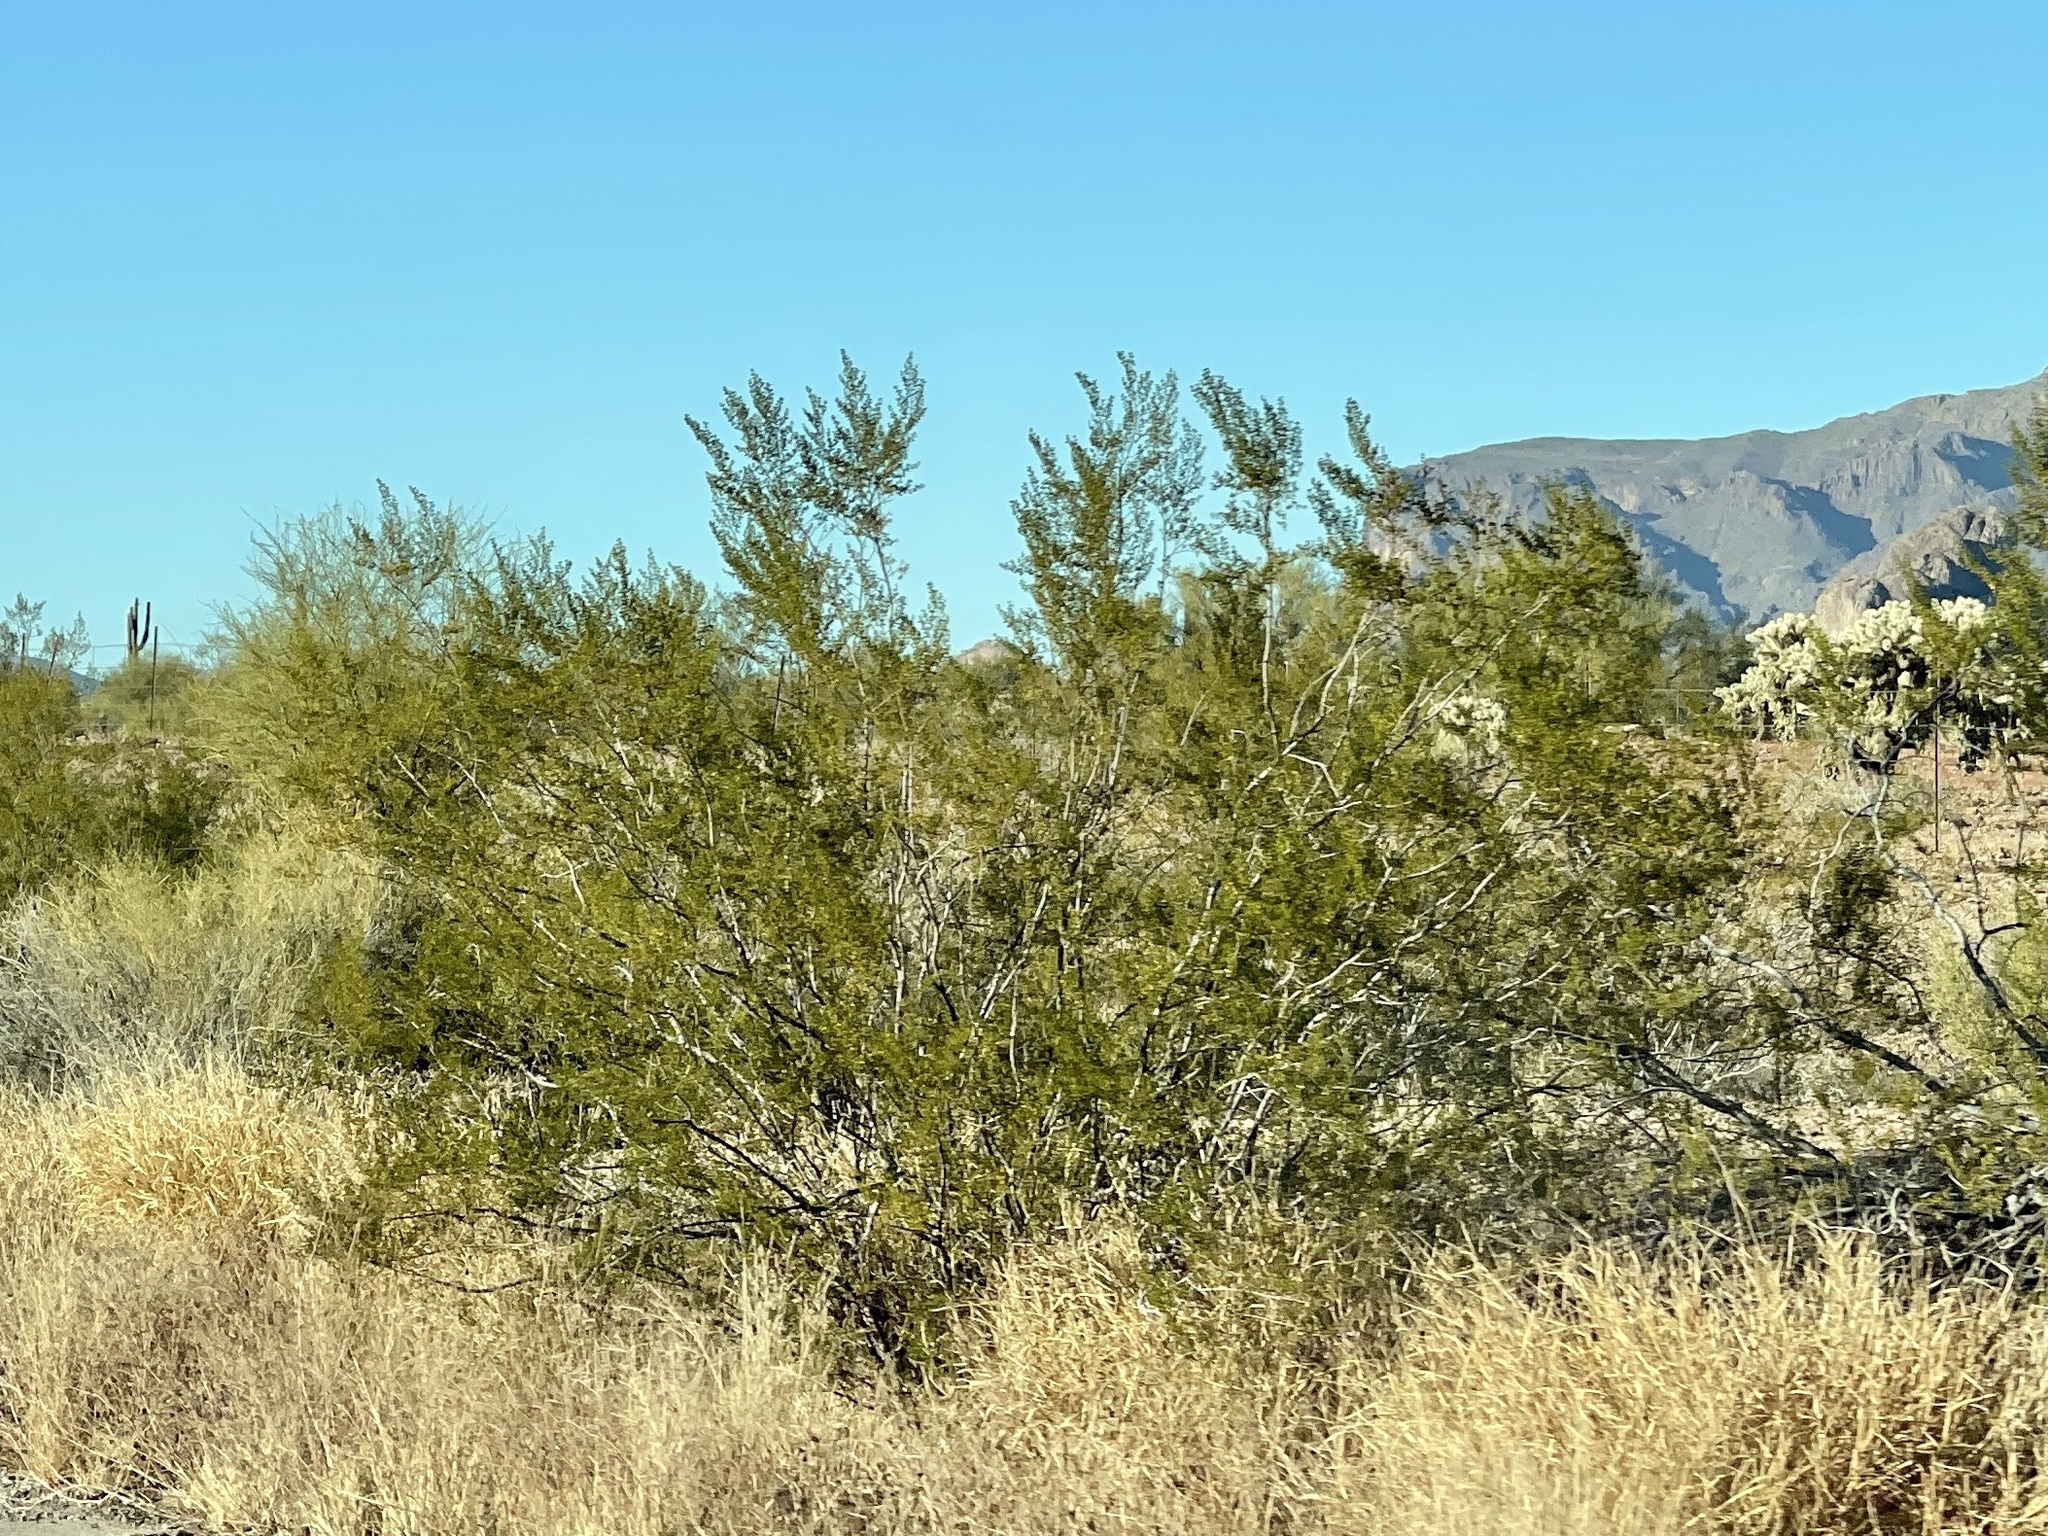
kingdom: Plantae
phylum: Tracheophyta
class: Magnoliopsida
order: Zygophyllales
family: Zygophyllaceae
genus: Larrea
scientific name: Larrea tridentata
